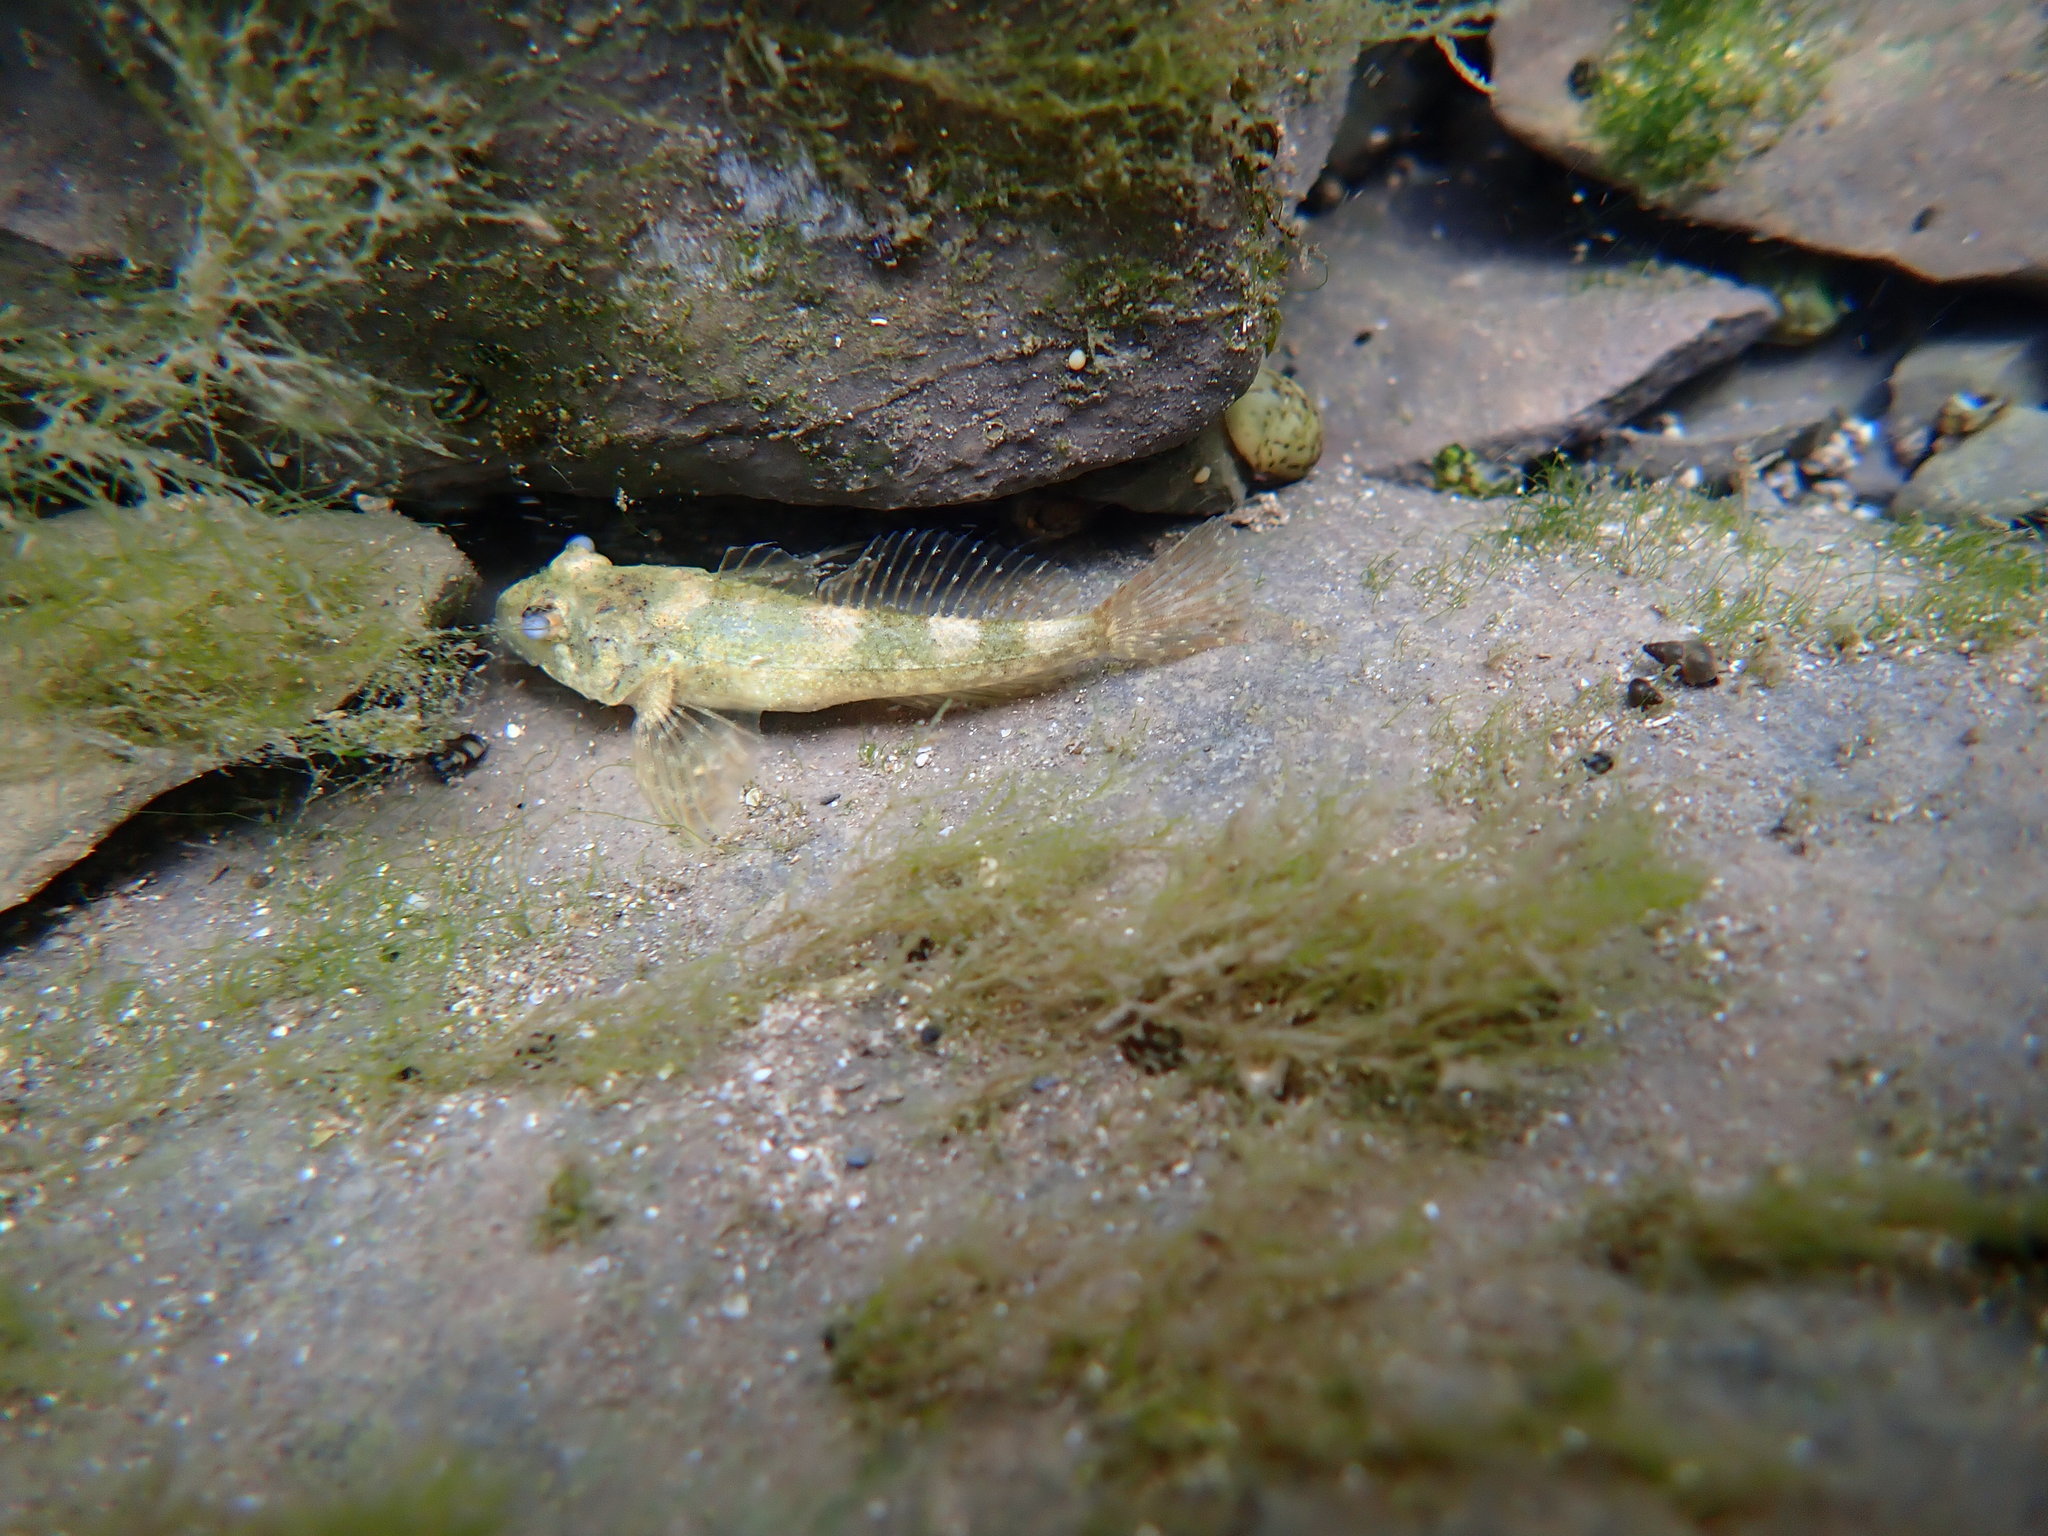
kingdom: Animalia
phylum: Chordata
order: Scorpaeniformes
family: Cottidae
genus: Cottus
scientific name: Cottus petiti
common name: Lez sculpin
